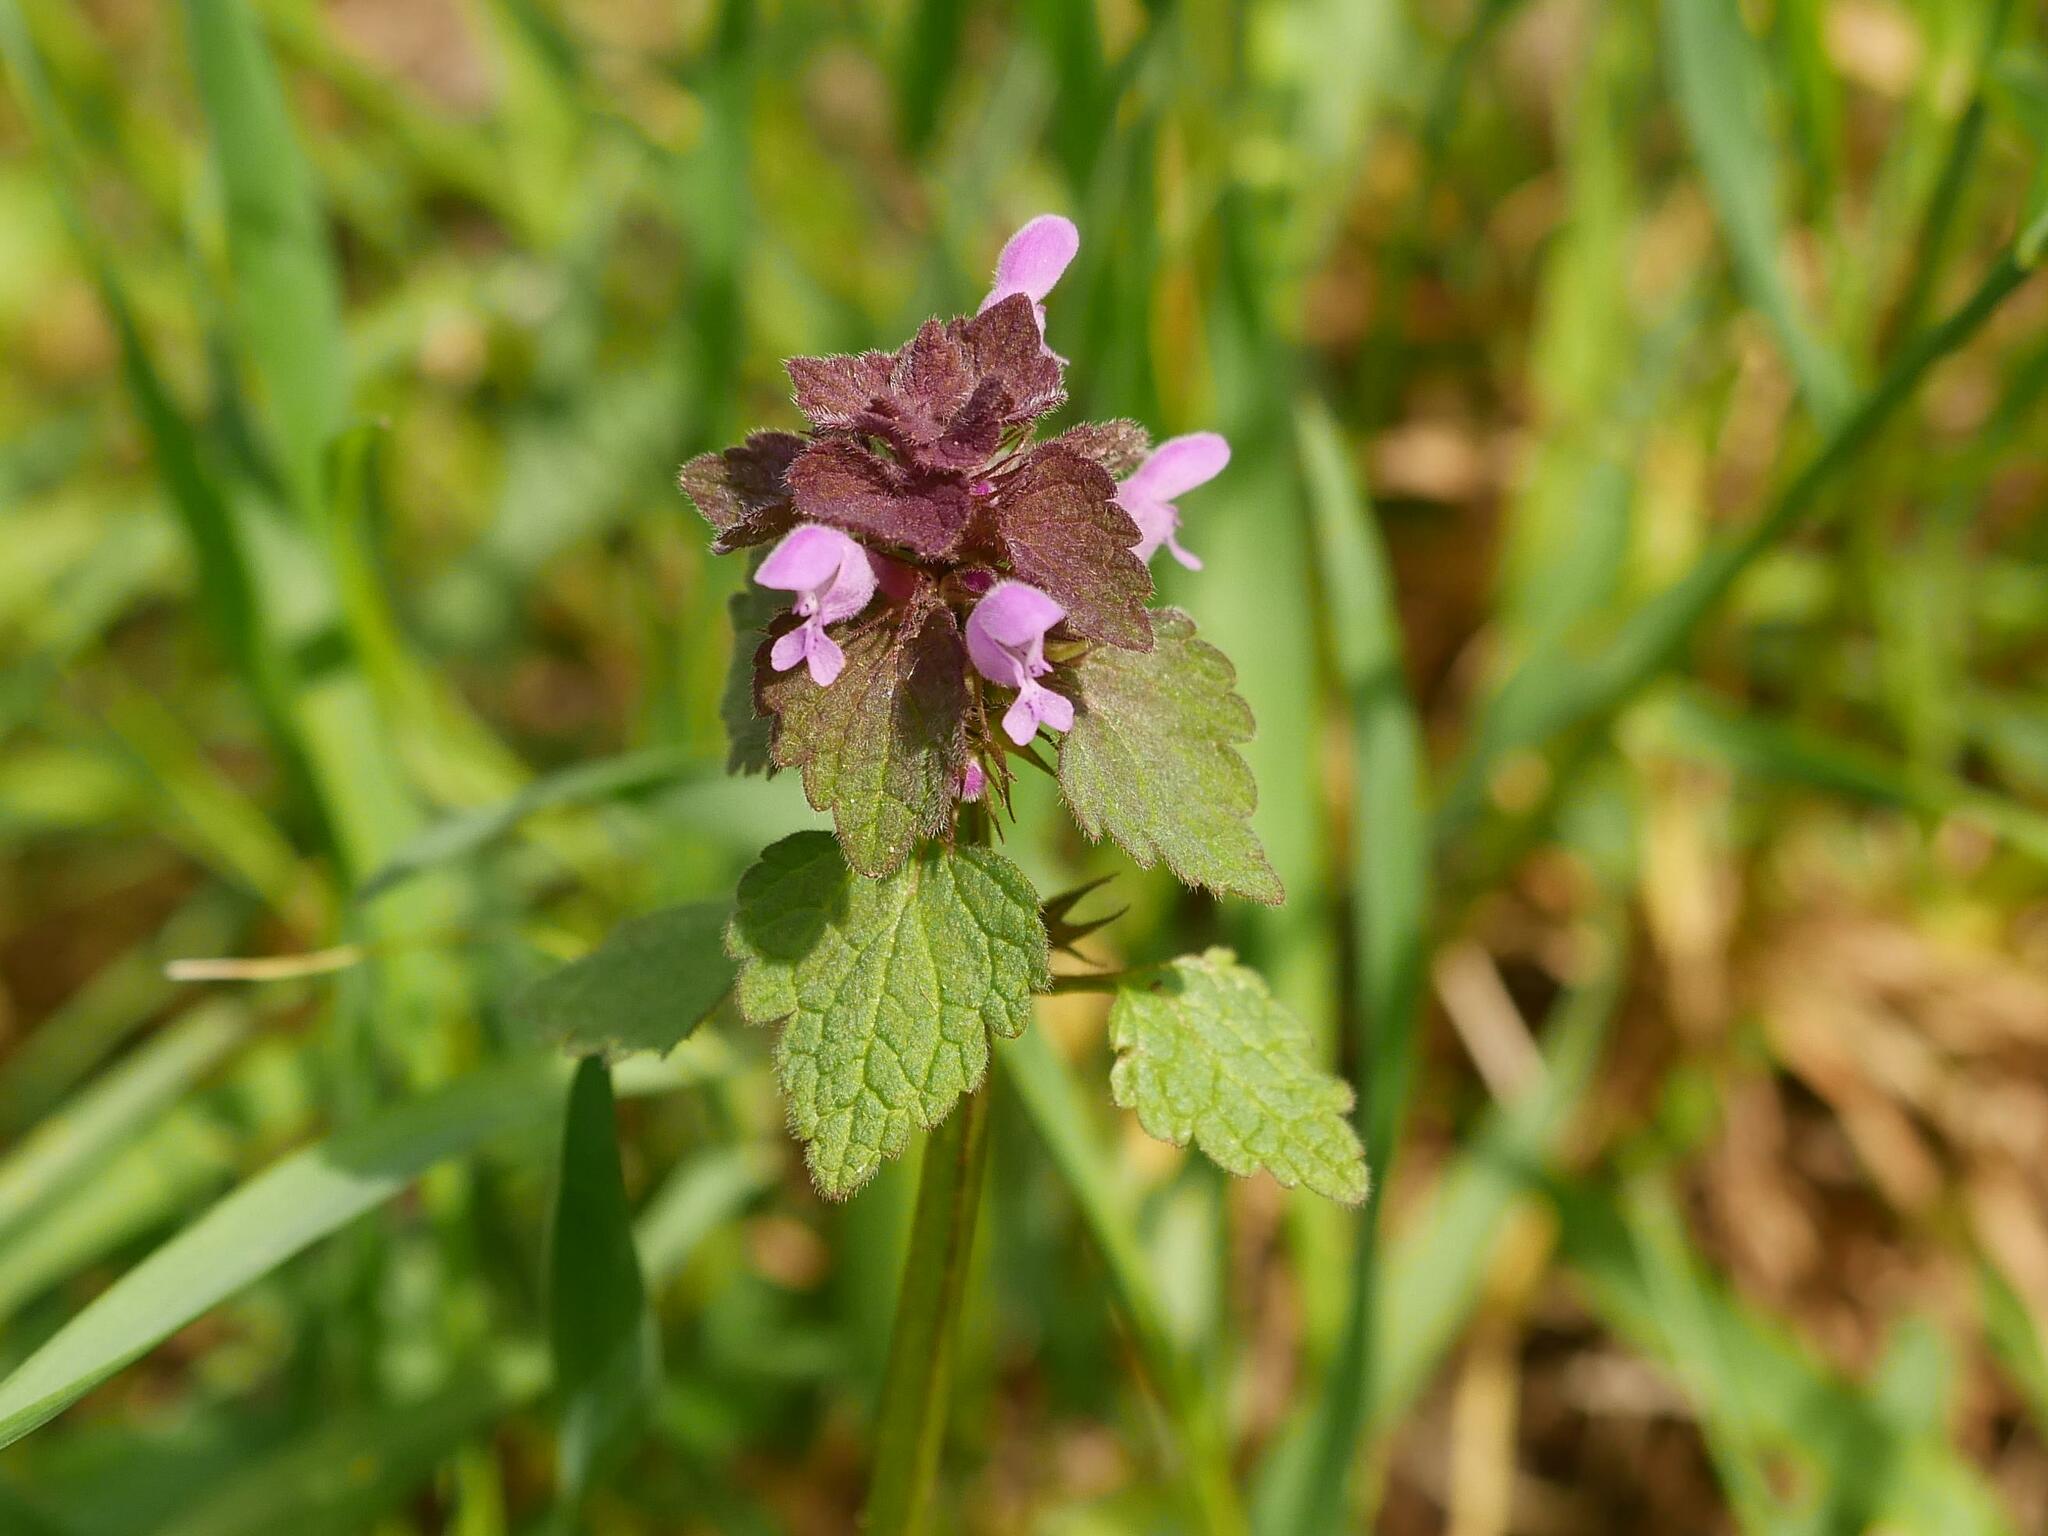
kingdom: Plantae
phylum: Tracheophyta
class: Magnoliopsida
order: Lamiales
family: Lamiaceae
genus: Lamium
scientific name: Lamium purpureum
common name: Red dead-nettle
